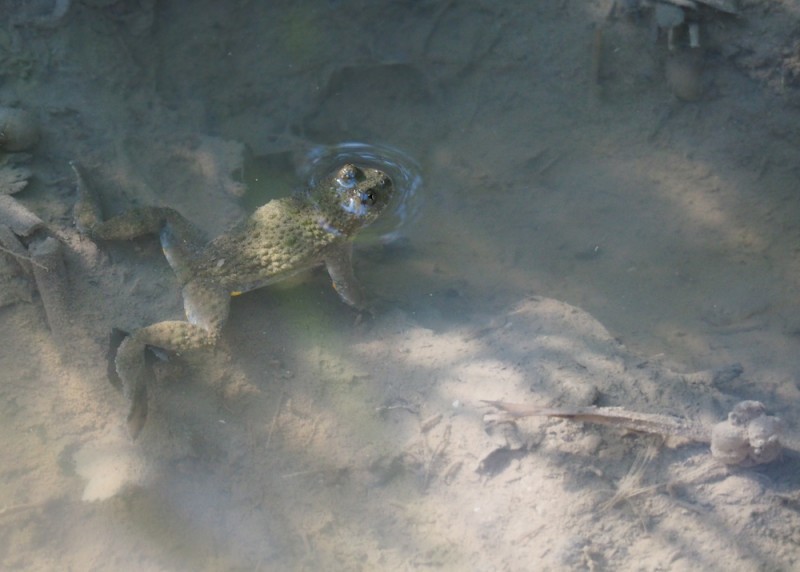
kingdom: Animalia
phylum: Chordata
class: Amphibia
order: Anura
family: Bombinatoridae
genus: Bombina
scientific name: Bombina variegata
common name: Yellow-bellied toad
